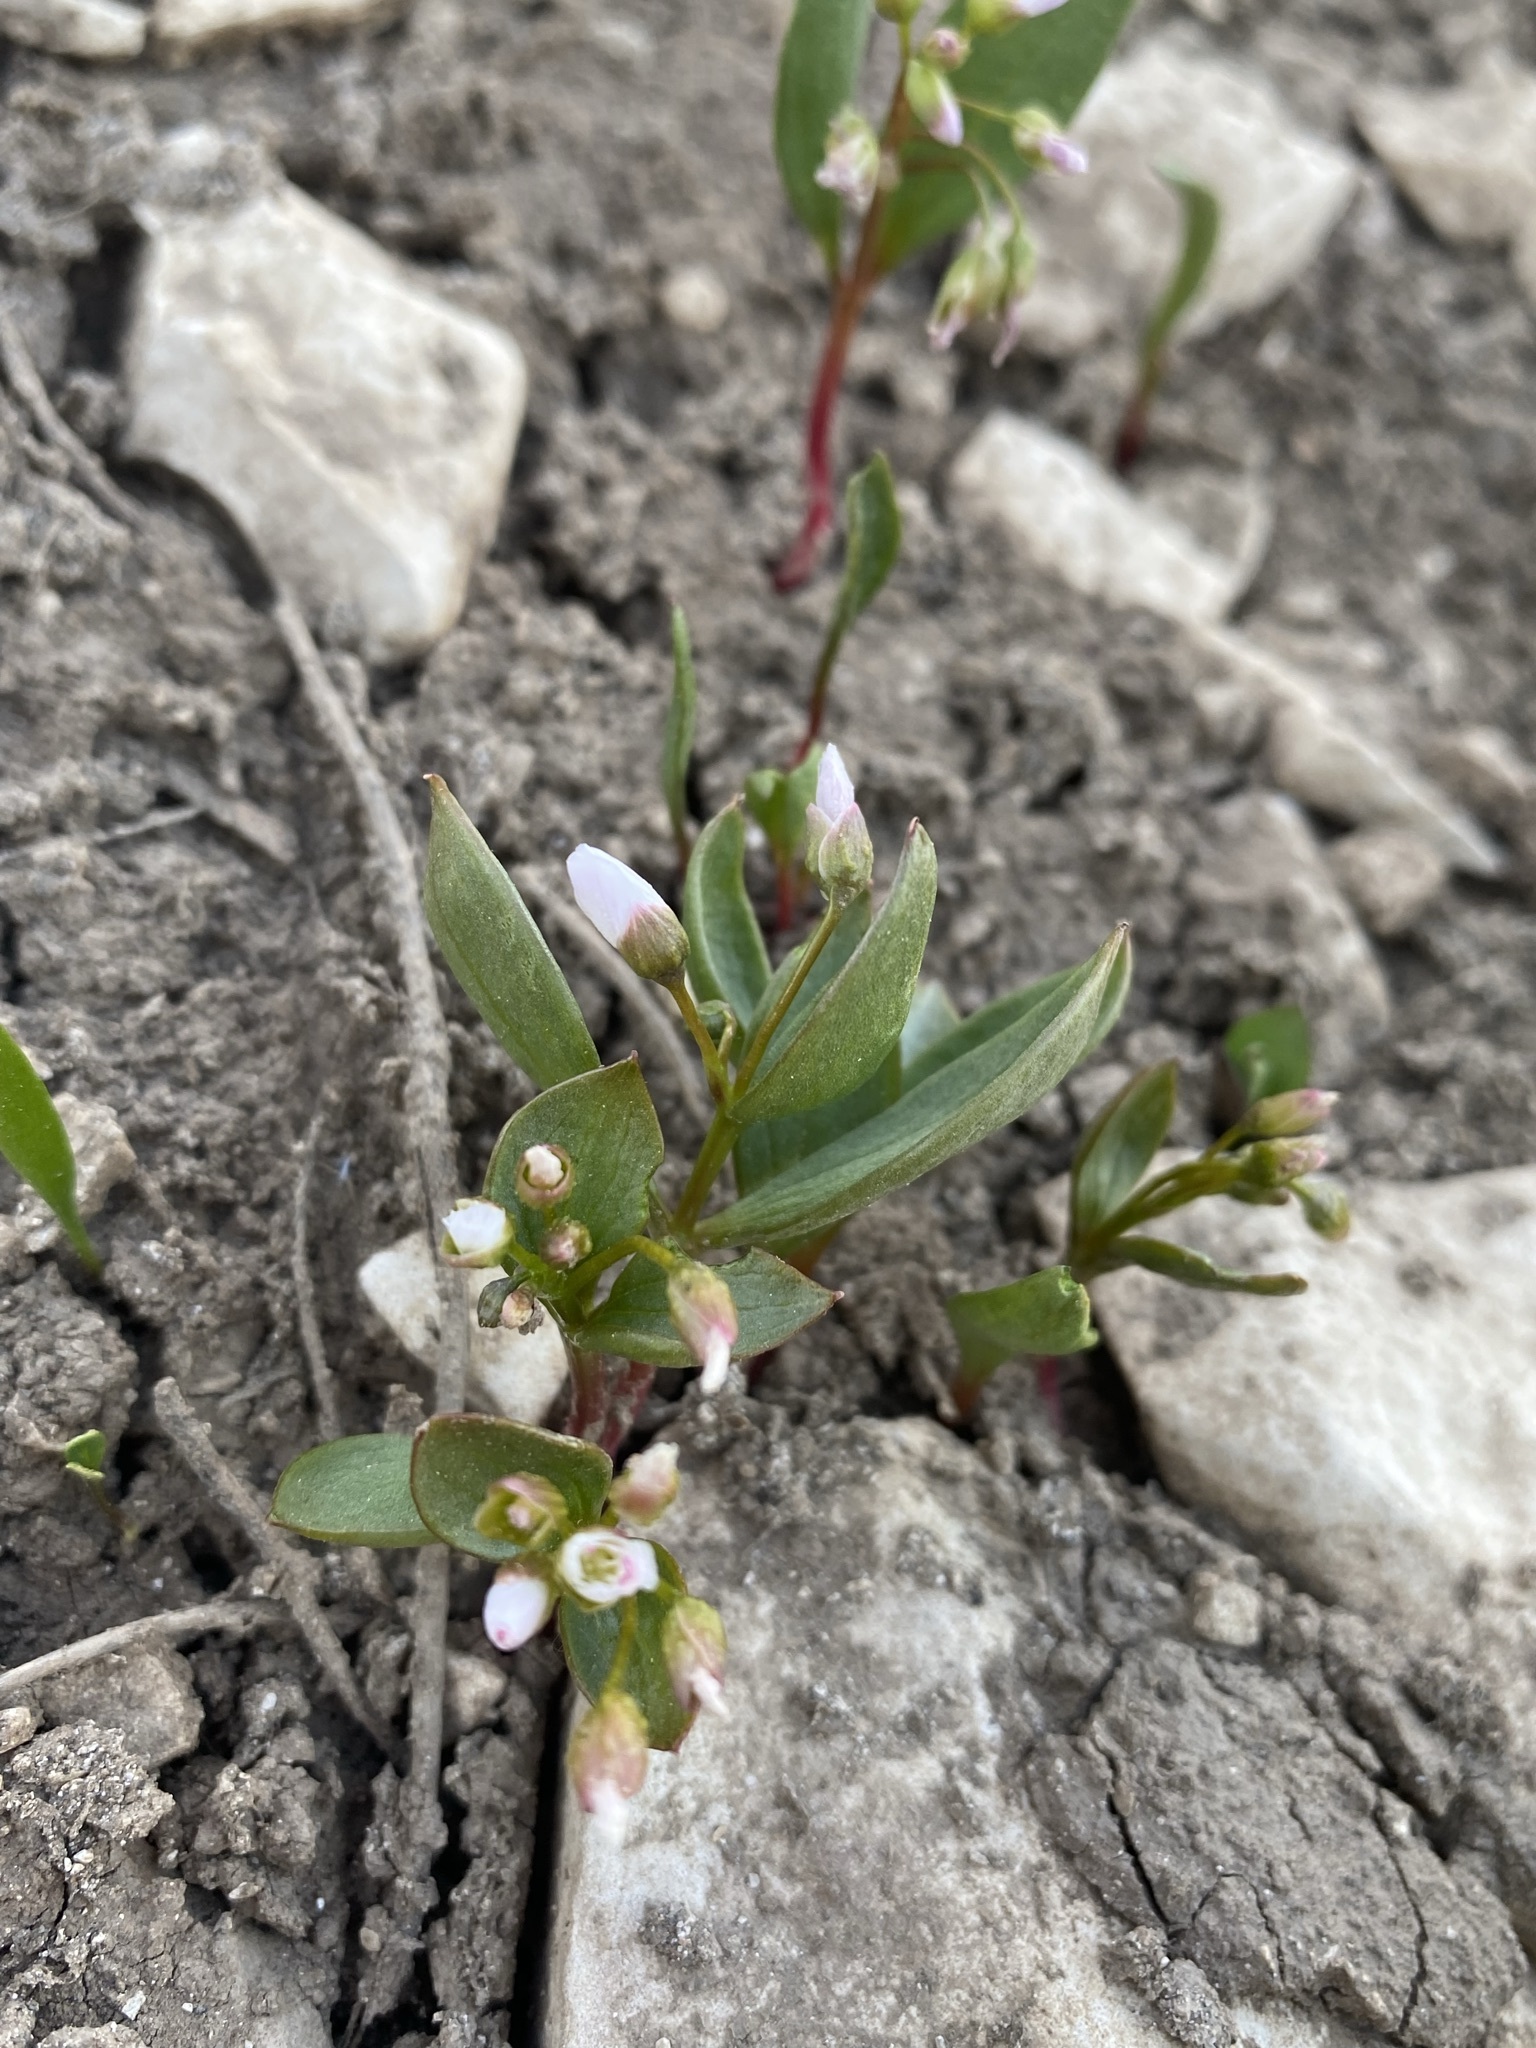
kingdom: Plantae
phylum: Tracheophyta
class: Magnoliopsida
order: Caryophyllales
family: Montiaceae
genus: Claytonia
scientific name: Claytonia lanceolata
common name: Western spring-beauty
